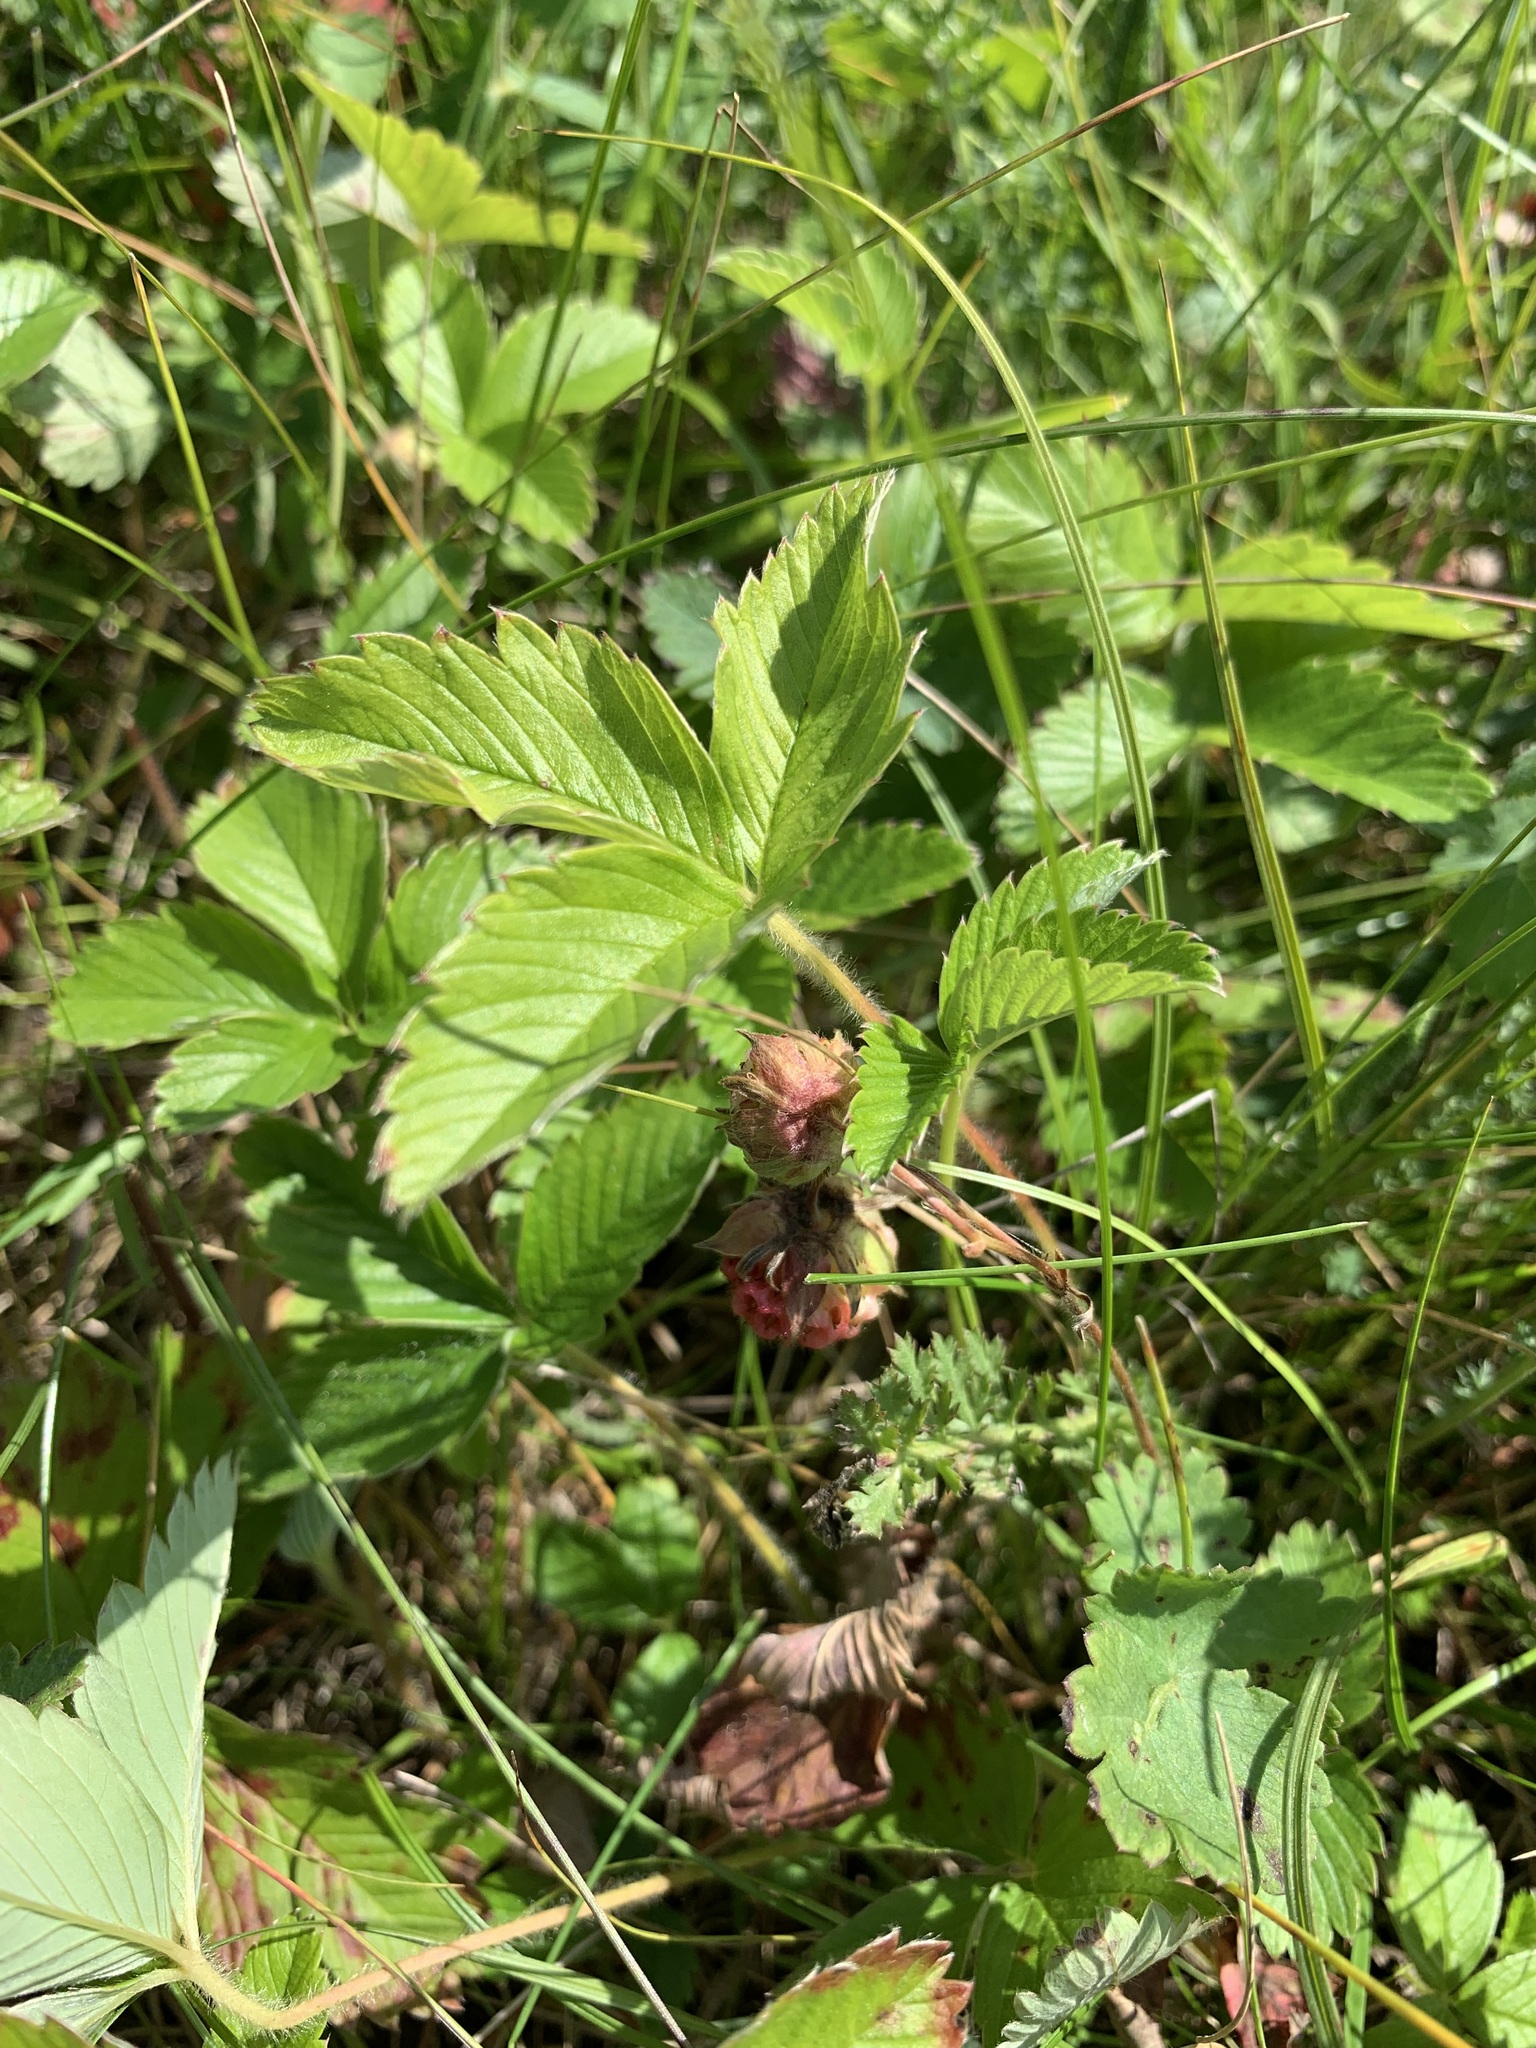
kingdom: Plantae
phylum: Tracheophyta
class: Magnoliopsida
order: Rosales
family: Rosaceae
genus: Fragaria
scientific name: Fragaria viridis
